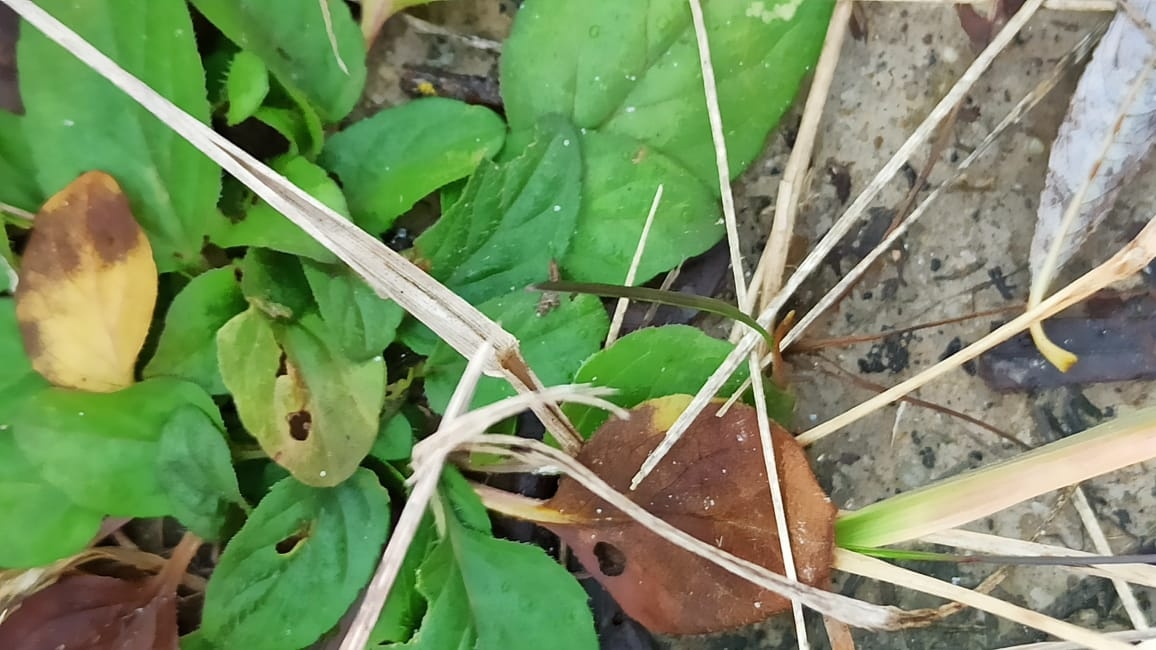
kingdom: Plantae
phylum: Tracheophyta
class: Magnoliopsida
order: Lamiales
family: Lamiaceae
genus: Prunella
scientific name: Prunella vulgaris
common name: Heal-all
